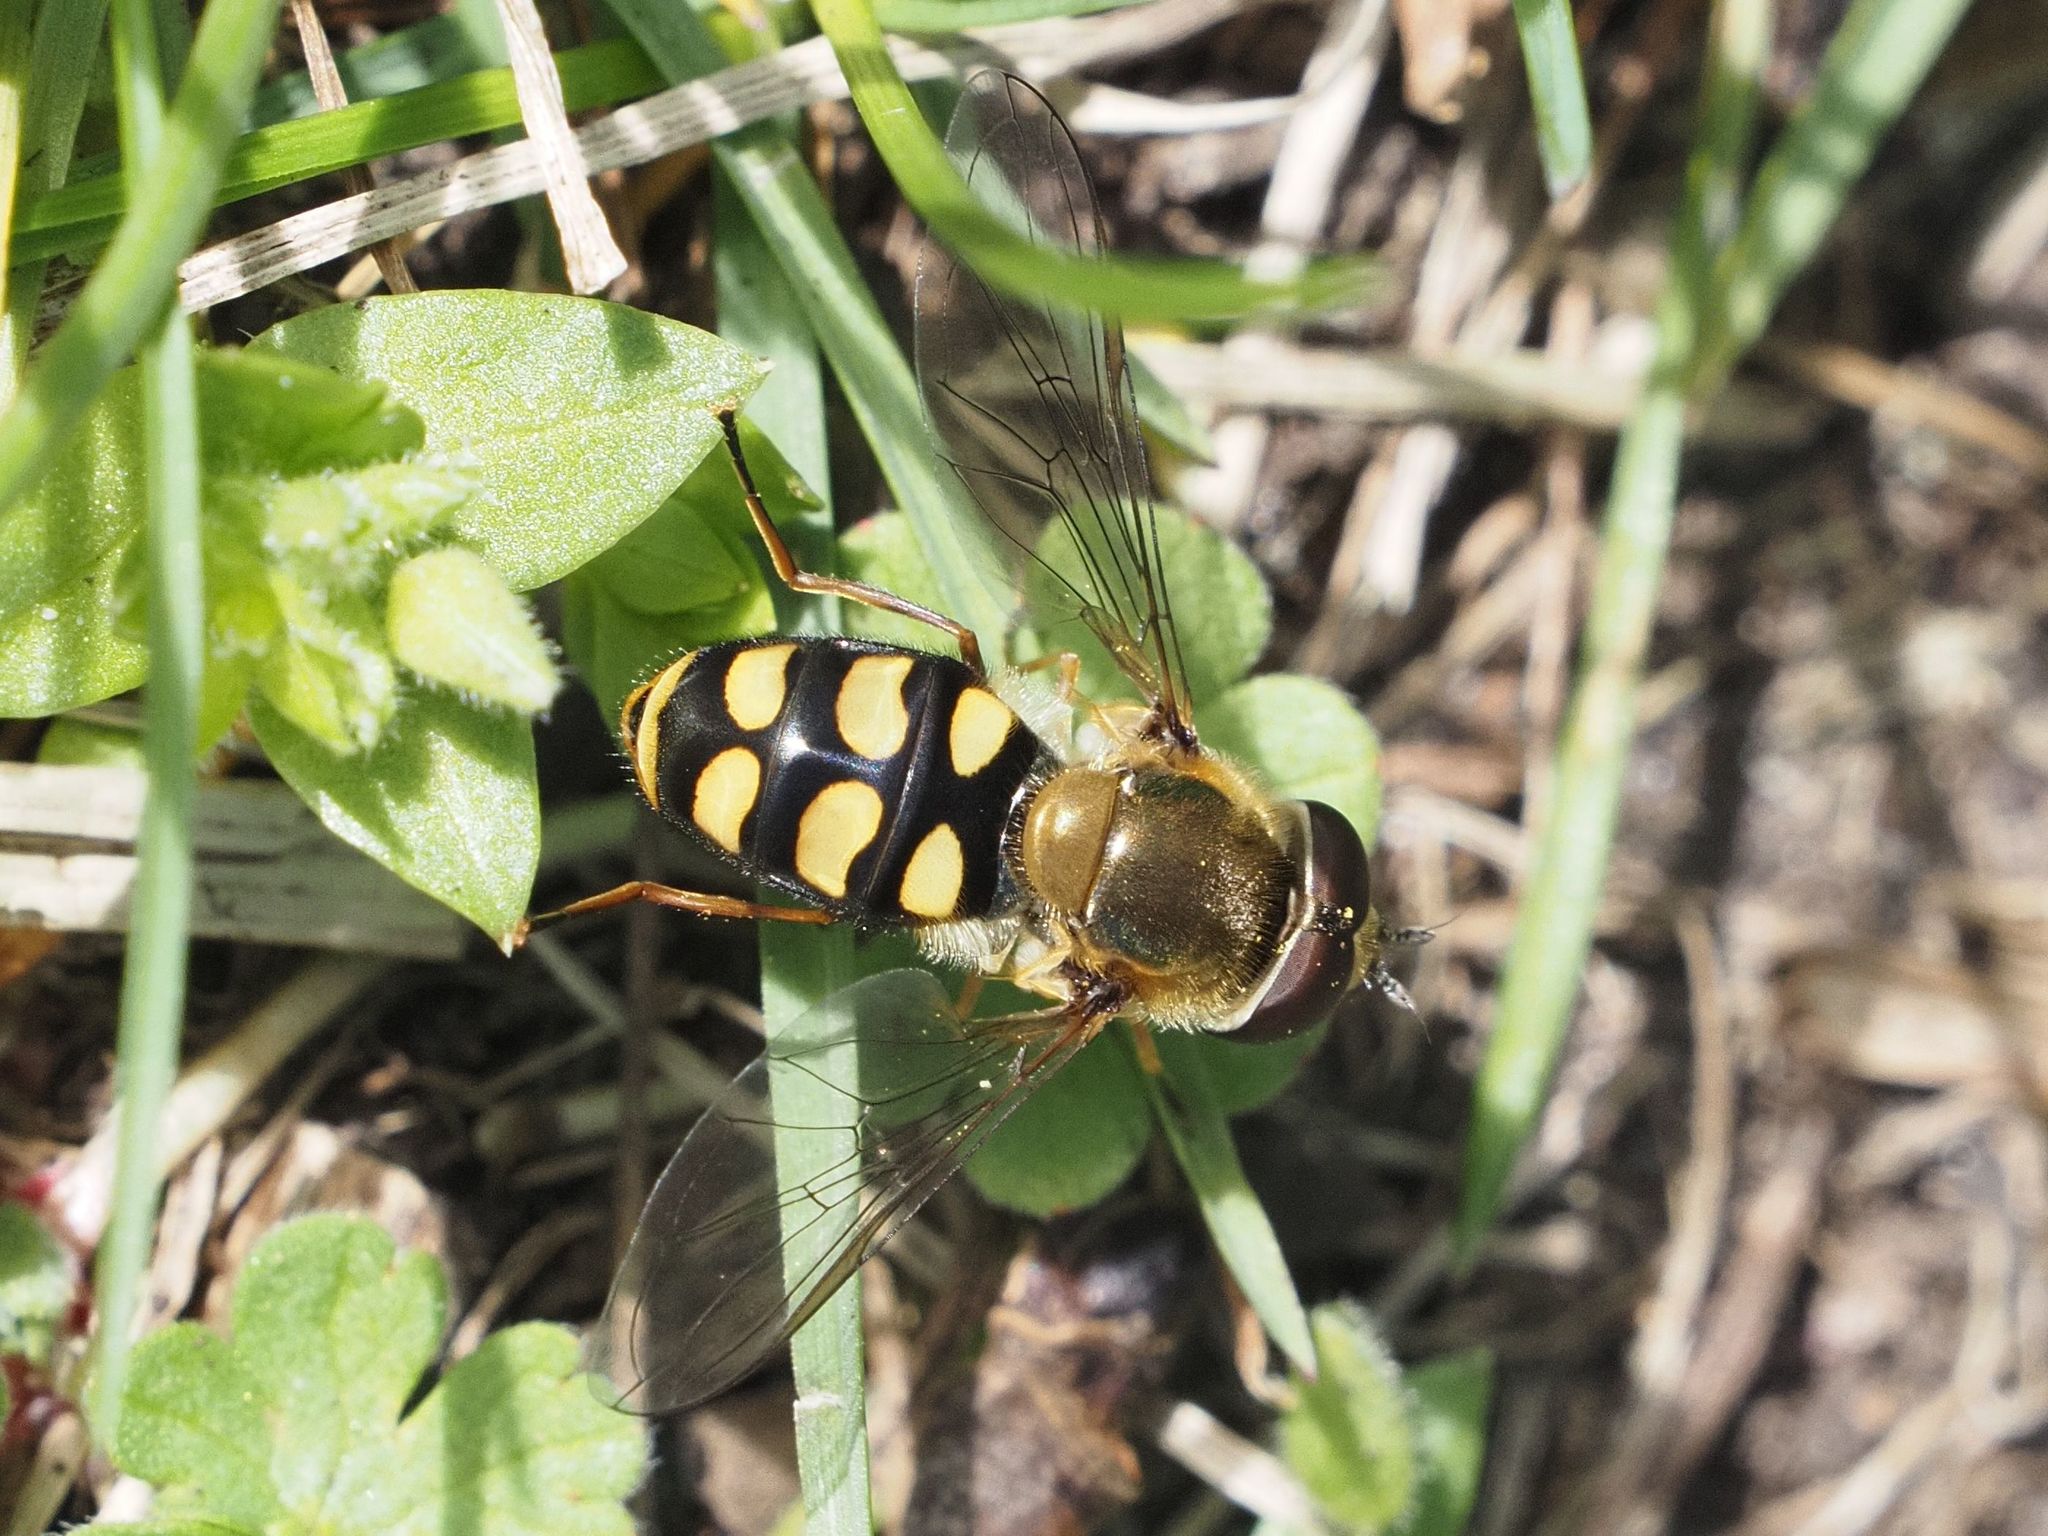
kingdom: Animalia
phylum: Arthropoda
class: Insecta
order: Diptera
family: Syrphidae
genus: Eupeodes
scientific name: Eupeodes luniger
